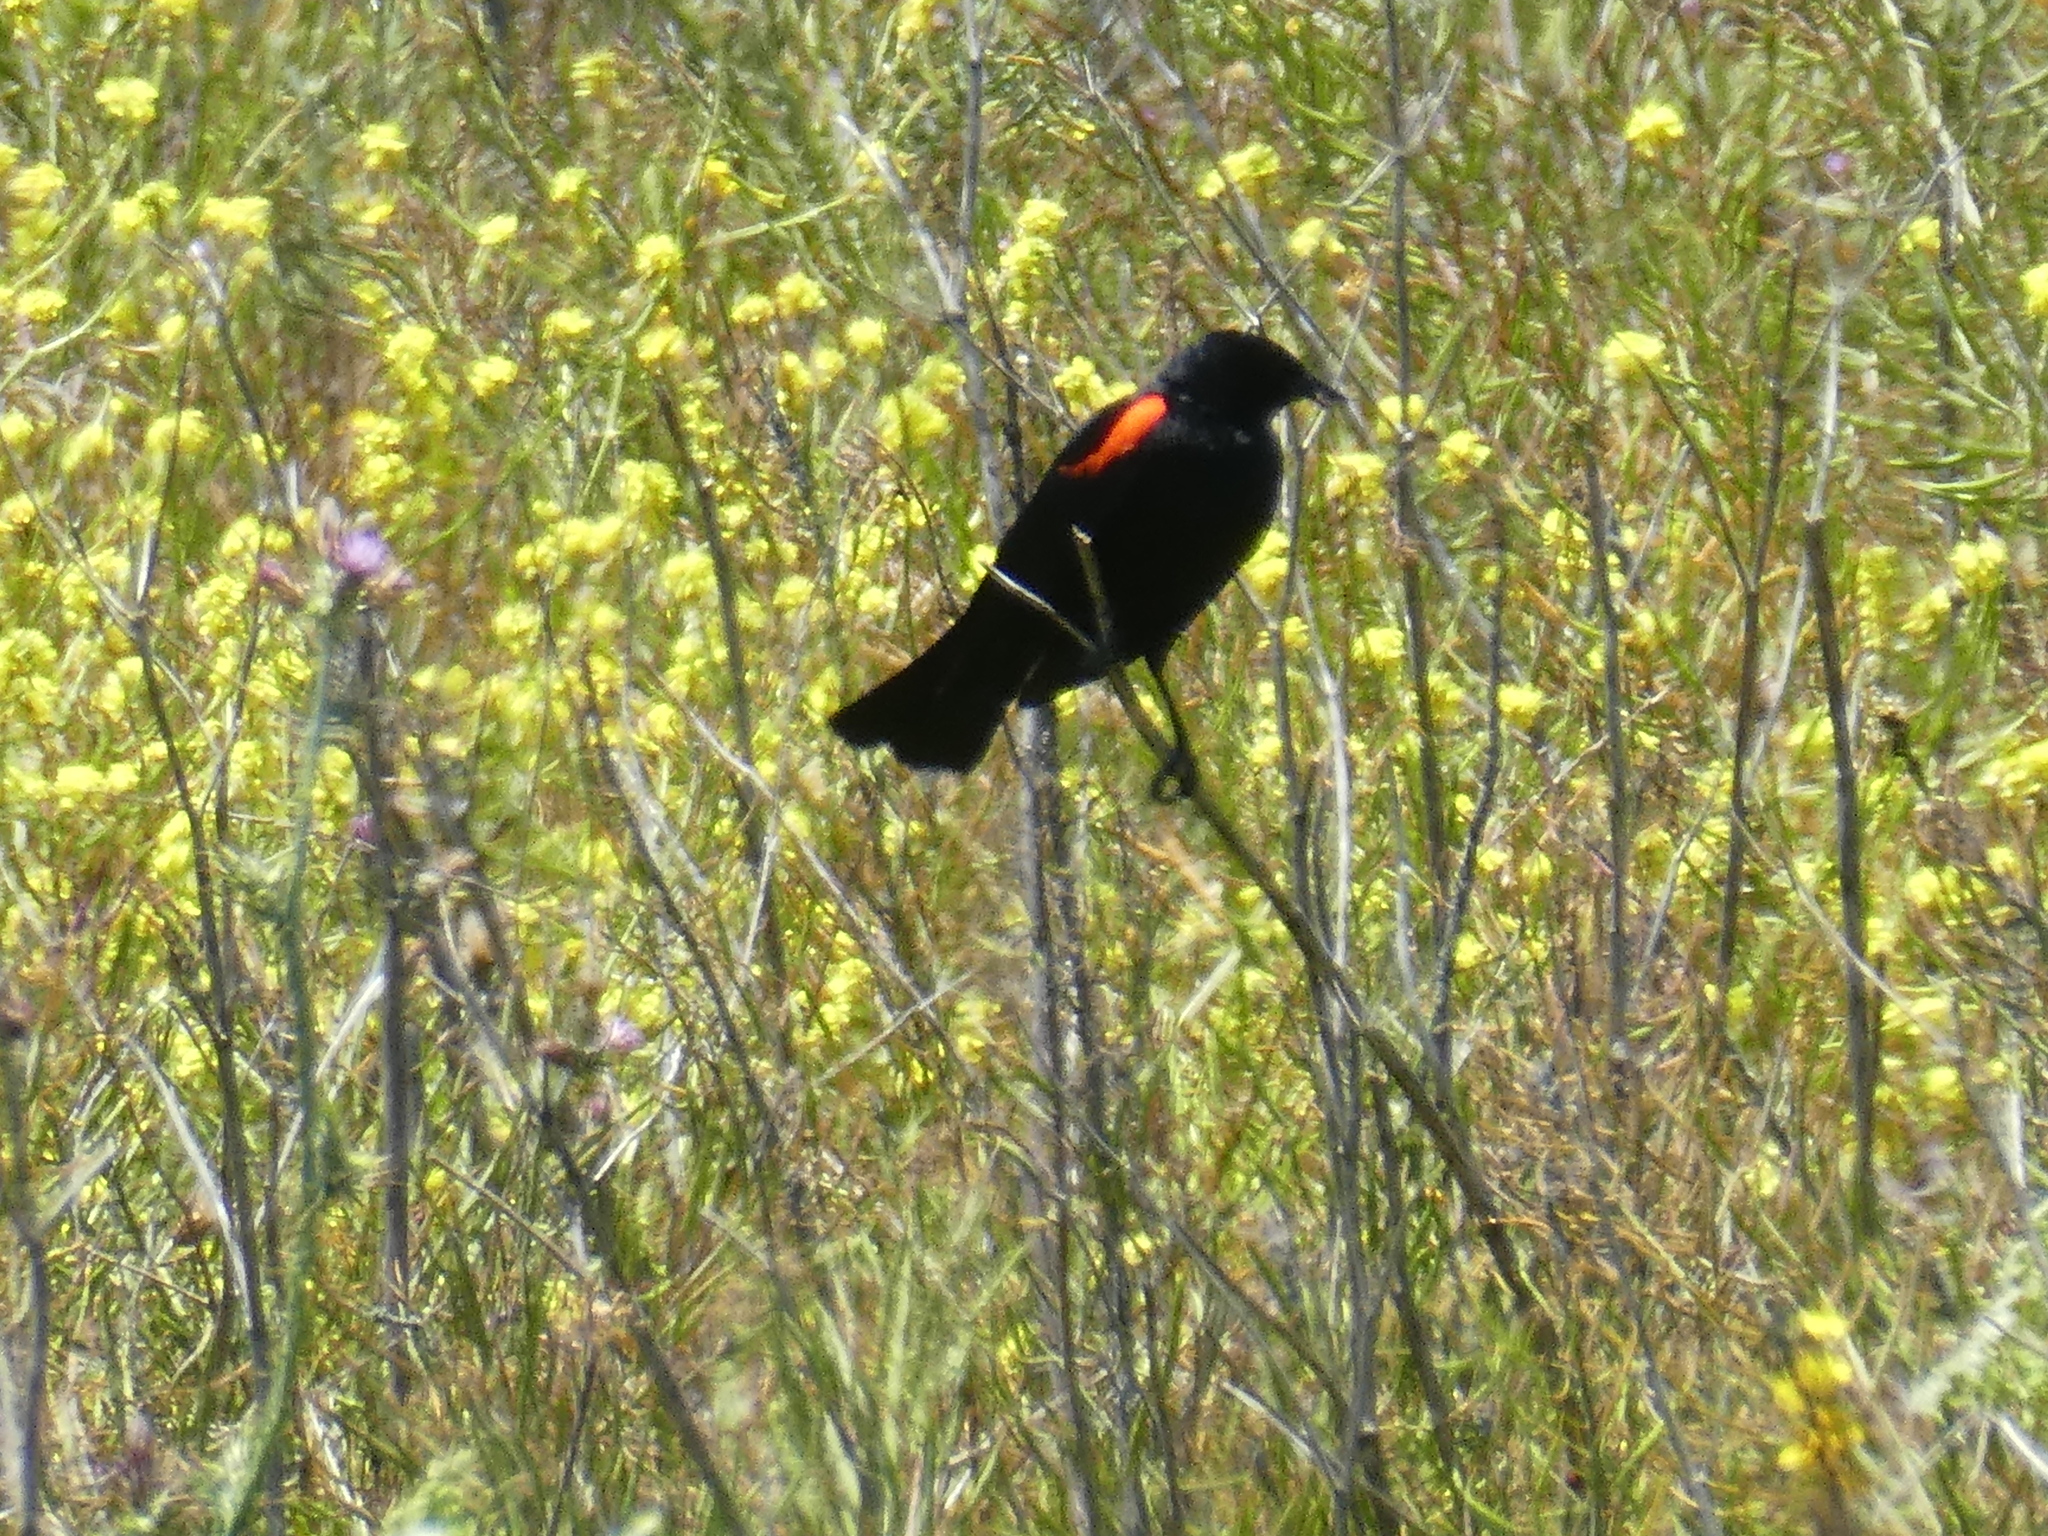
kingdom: Animalia
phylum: Chordata
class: Aves
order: Passeriformes
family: Icteridae
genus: Agelaius
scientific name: Agelaius phoeniceus
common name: Red-winged blackbird
